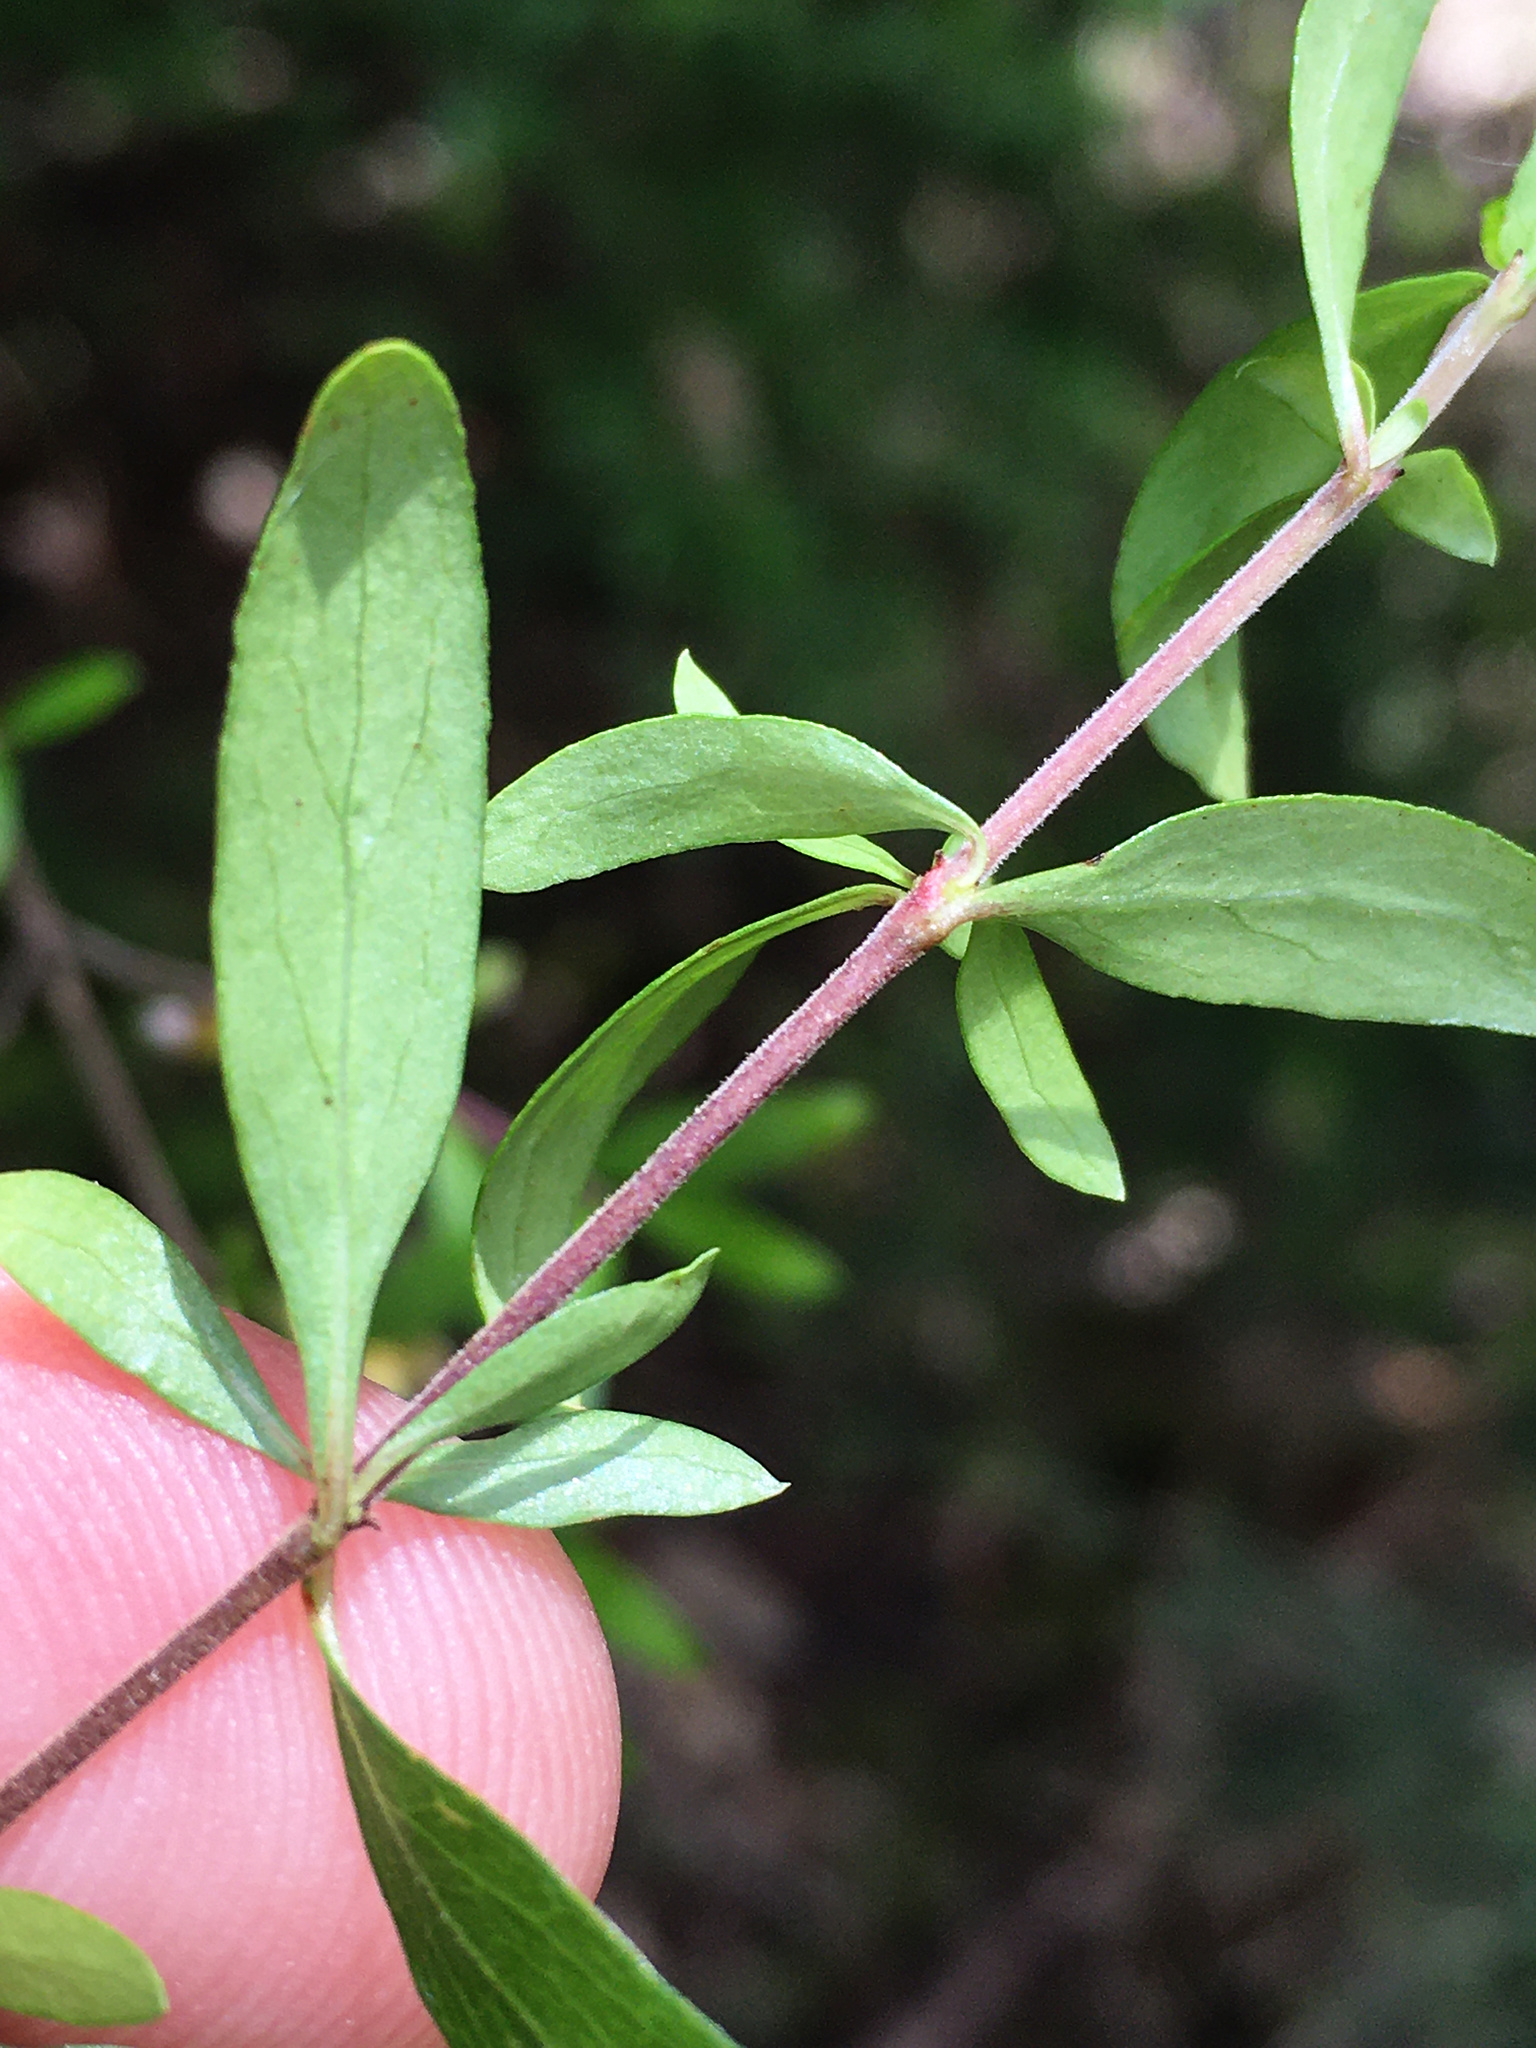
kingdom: Plantae
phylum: Tracheophyta
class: Magnoliopsida
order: Gentianales
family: Rubiaceae
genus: Coprosma
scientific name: Coprosma quadrifida
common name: Prickly currantbush
